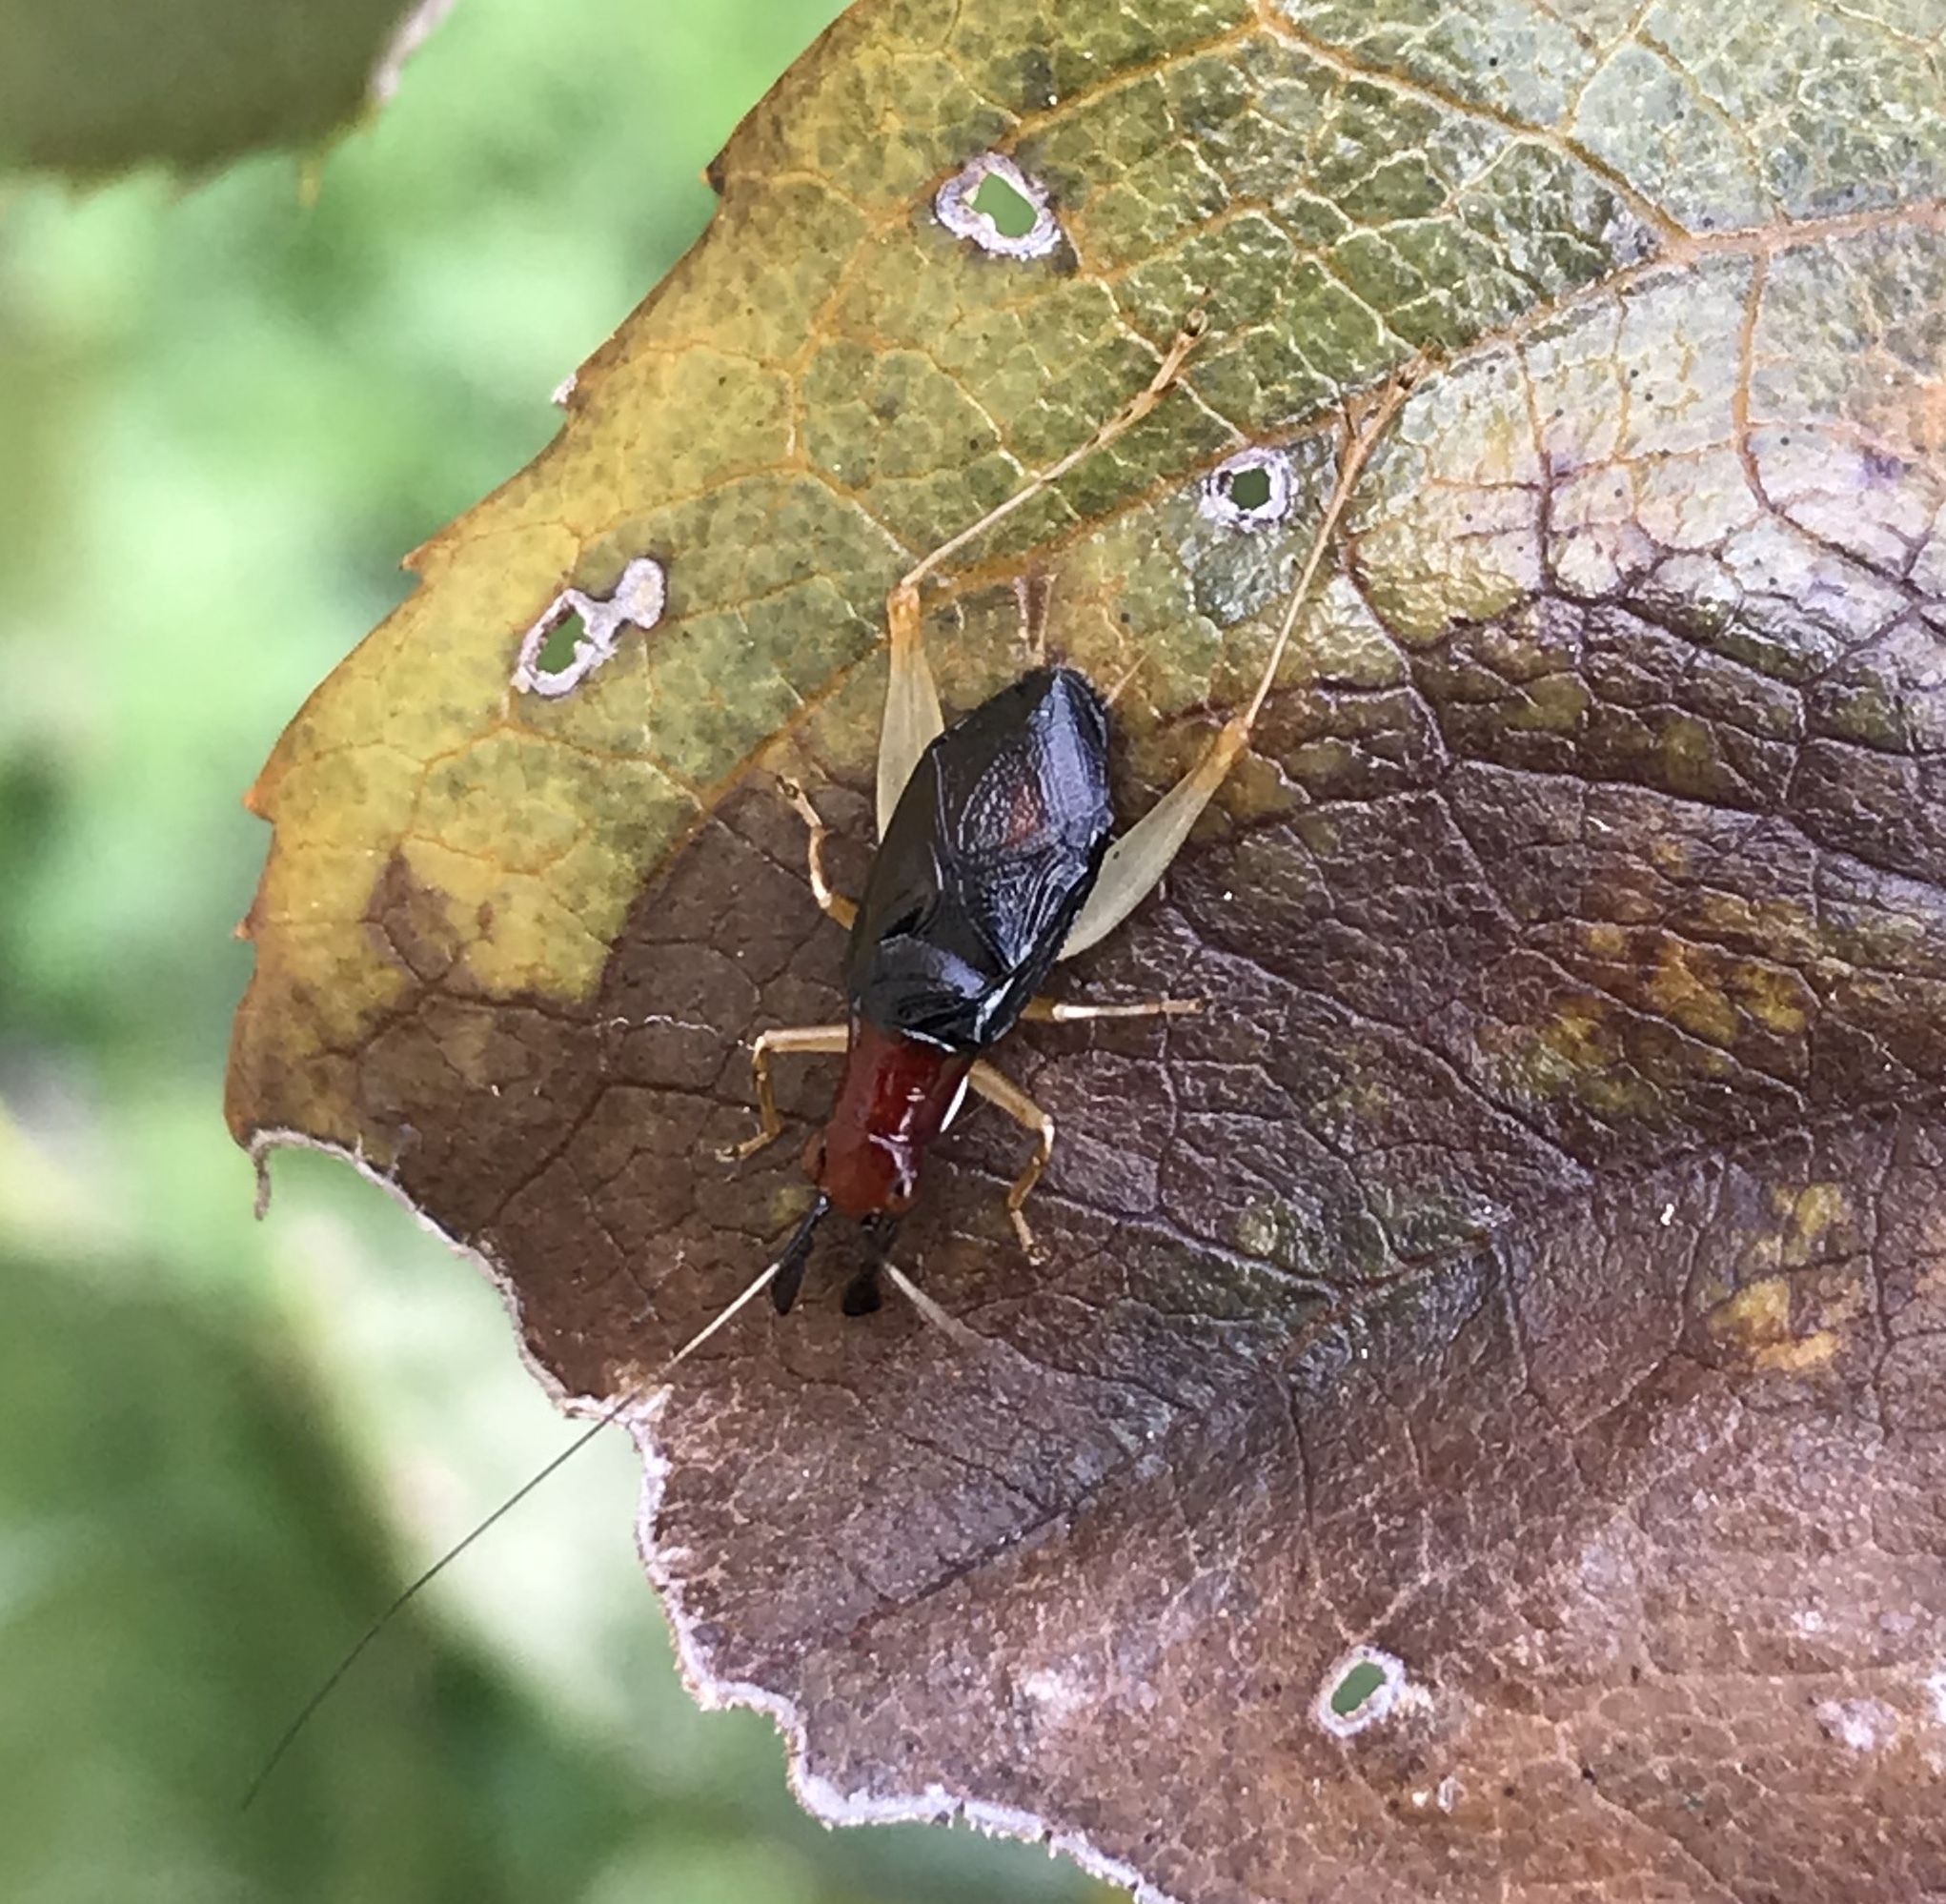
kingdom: Animalia
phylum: Arthropoda
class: Insecta
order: Orthoptera
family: Trigonidiidae
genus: Phyllopalpus
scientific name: Phyllopalpus pulchellus
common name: Handsome trig
